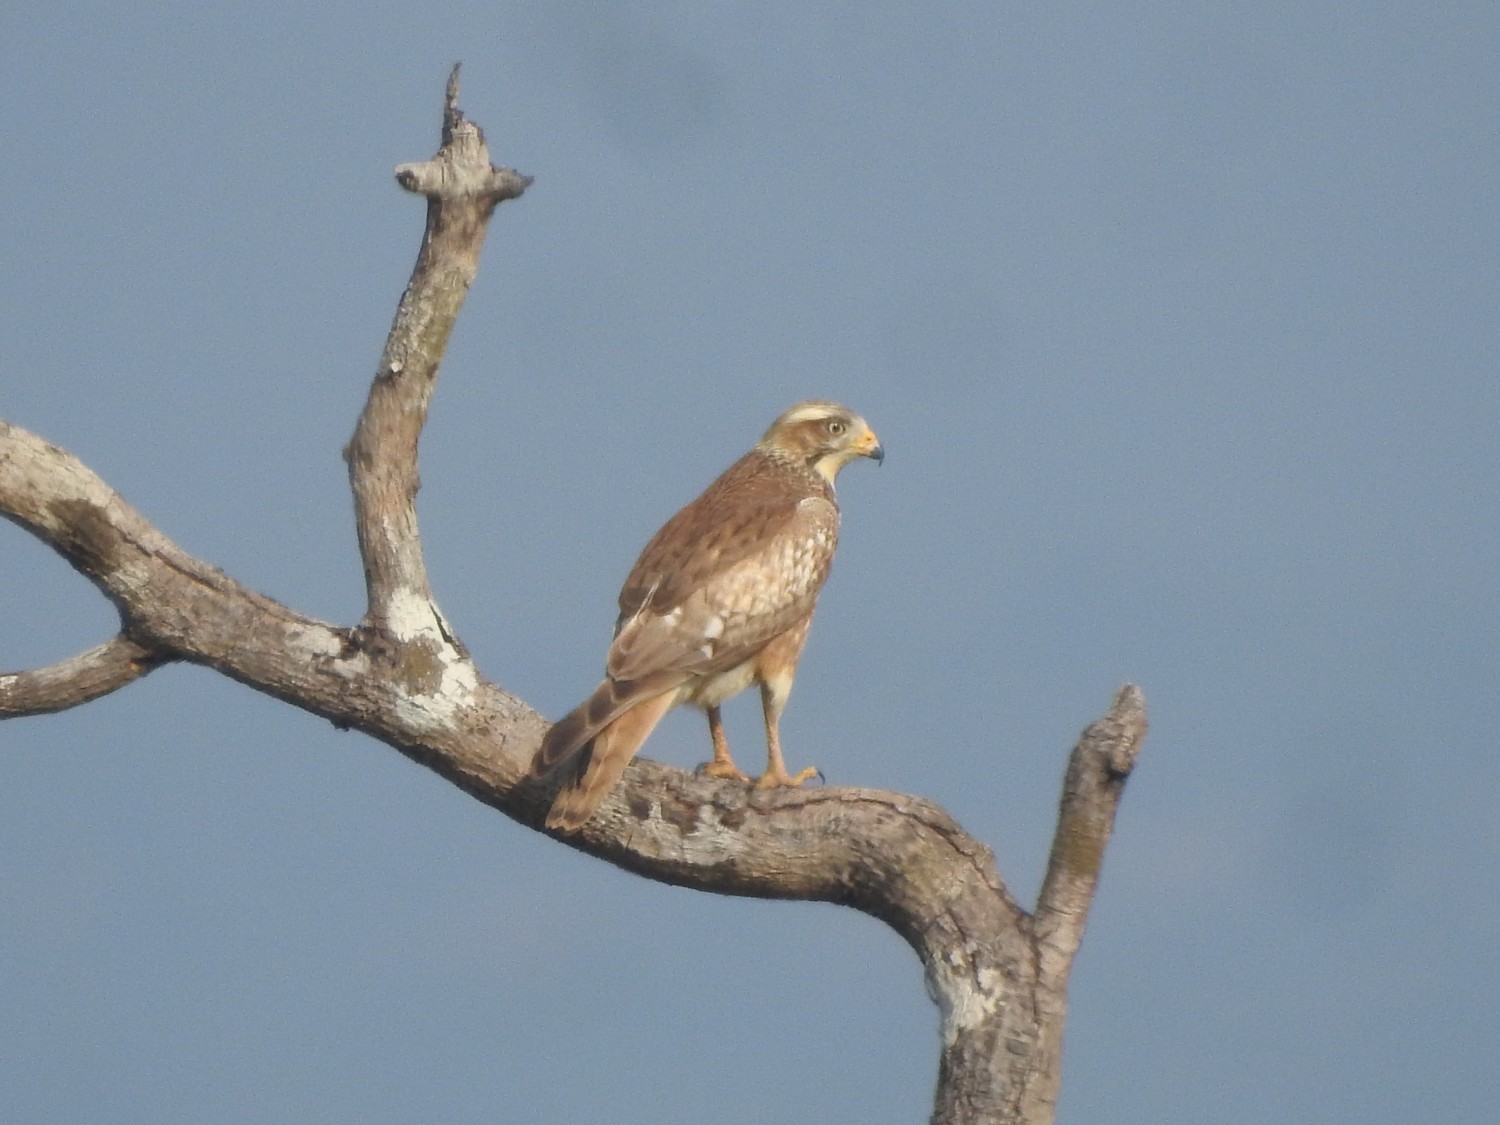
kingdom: Animalia
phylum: Chordata
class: Aves
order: Accipitriformes
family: Accipitridae
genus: Butastur
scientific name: Butastur teesa
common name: White-eyed buzzard
